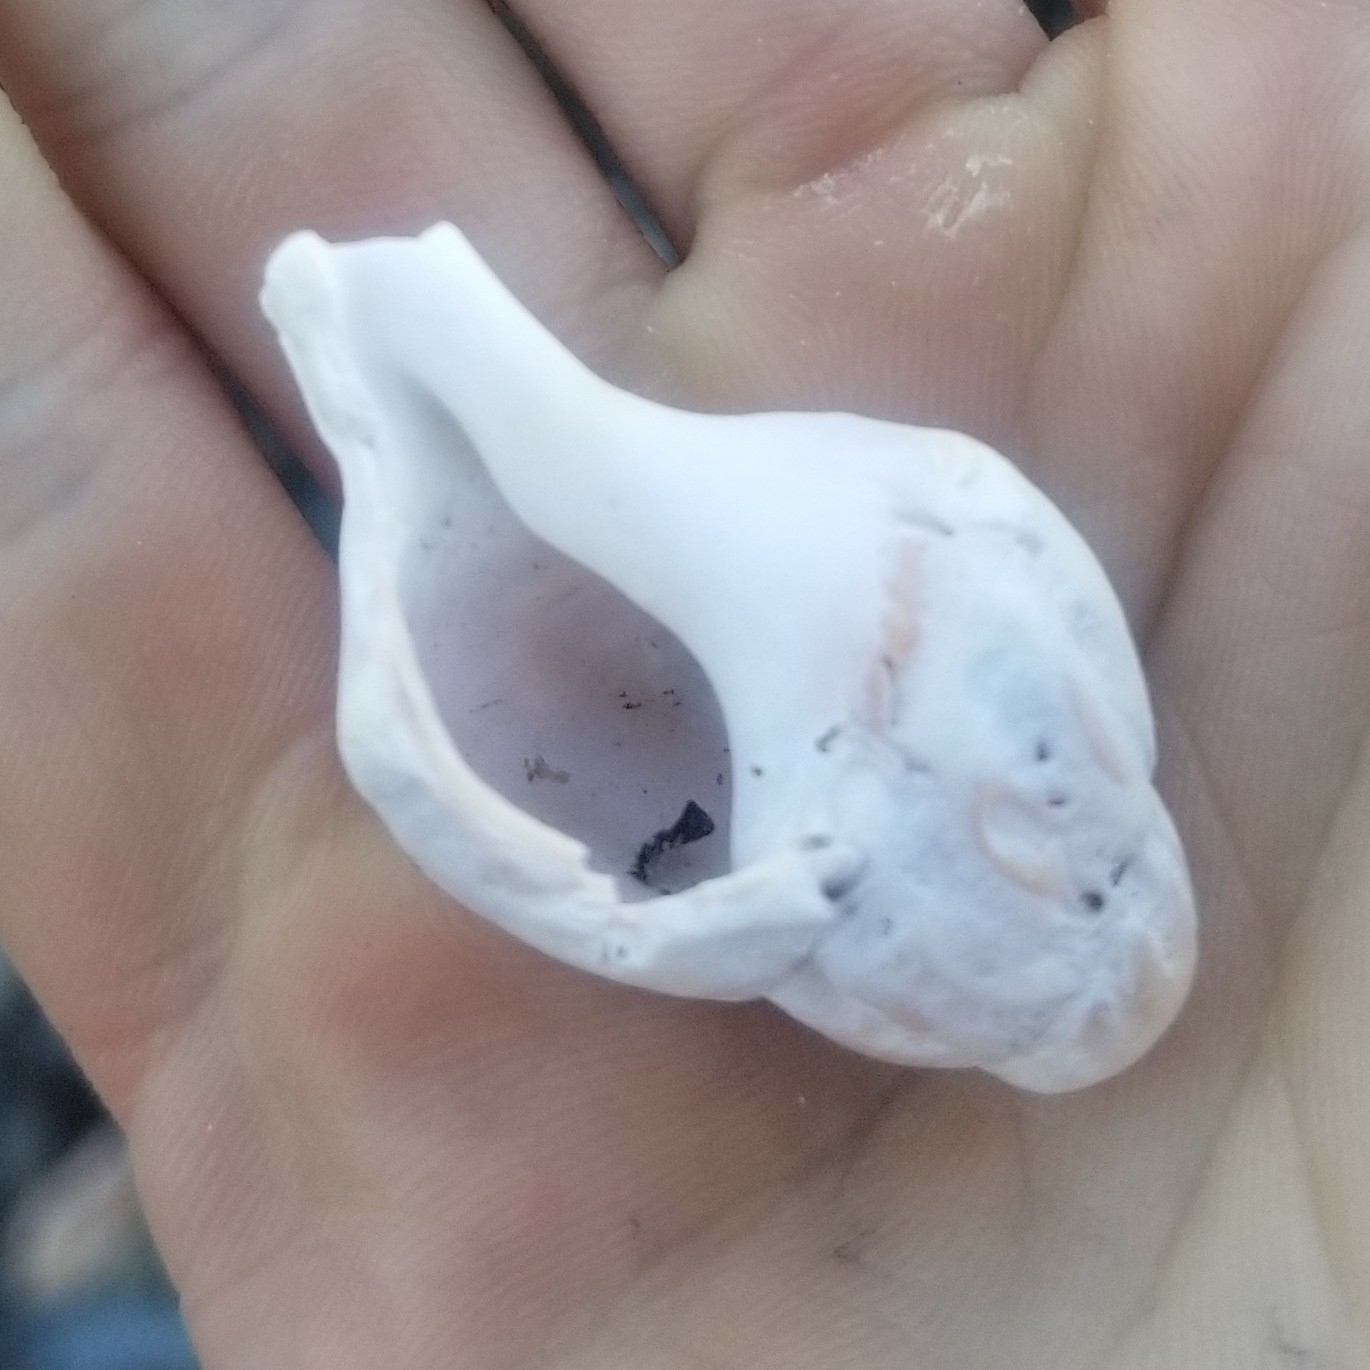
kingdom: Animalia
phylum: Mollusca
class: Gastropoda
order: Neogastropoda
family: Muricidae
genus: Urosalpinx
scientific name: Urosalpinx cinerea
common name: American sting winkle
